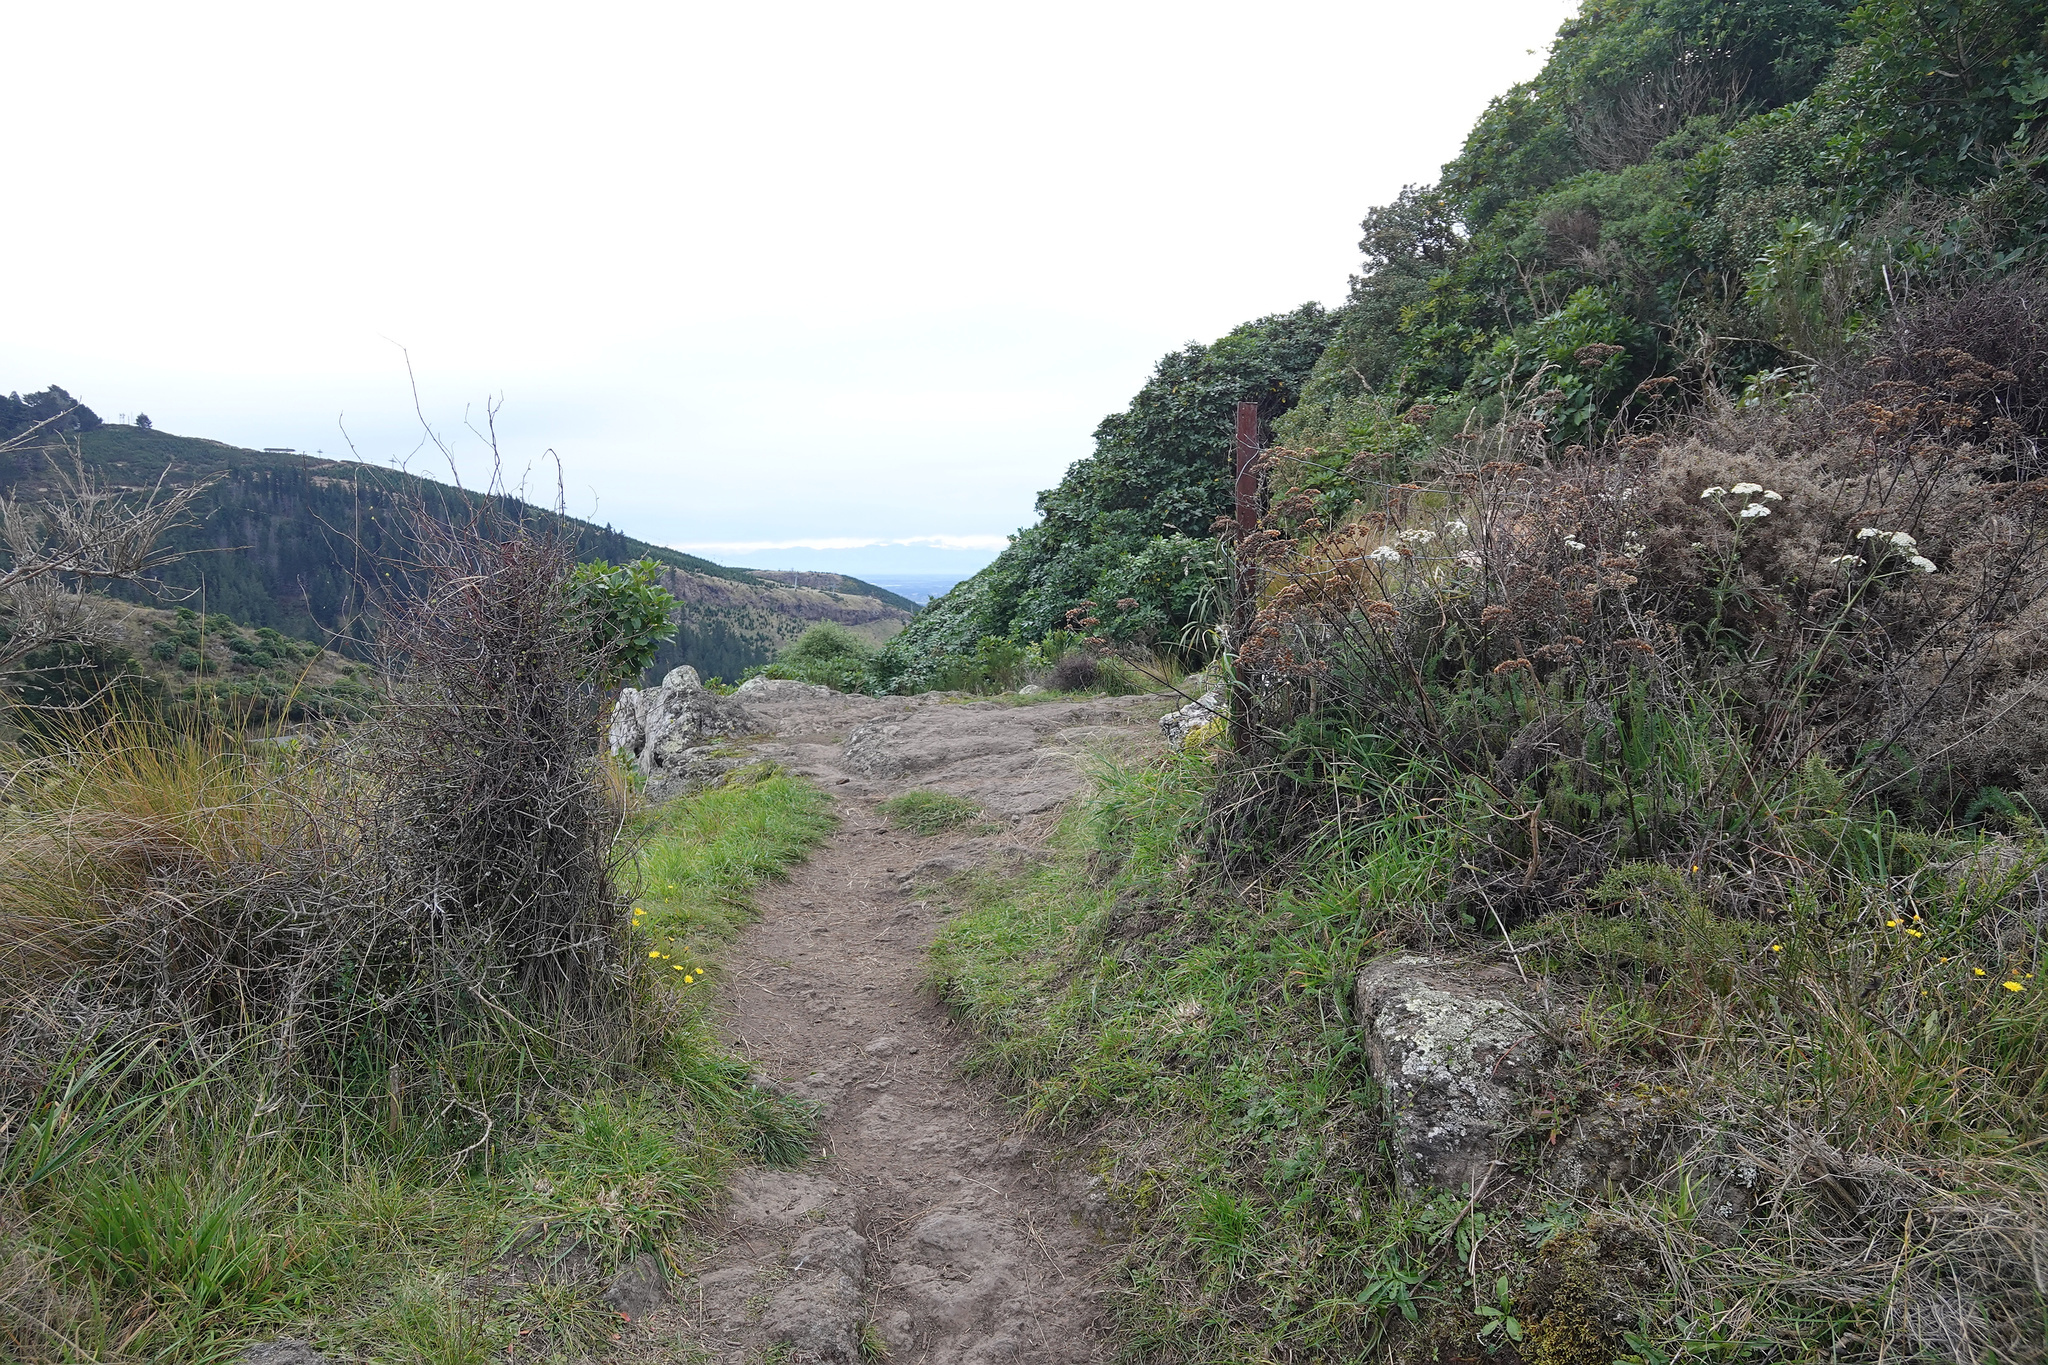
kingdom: Plantae
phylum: Tracheophyta
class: Magnoliopsida
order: Asterales
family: Asteraceae
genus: Achillea
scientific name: Achillea millefolium
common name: Yarrow
